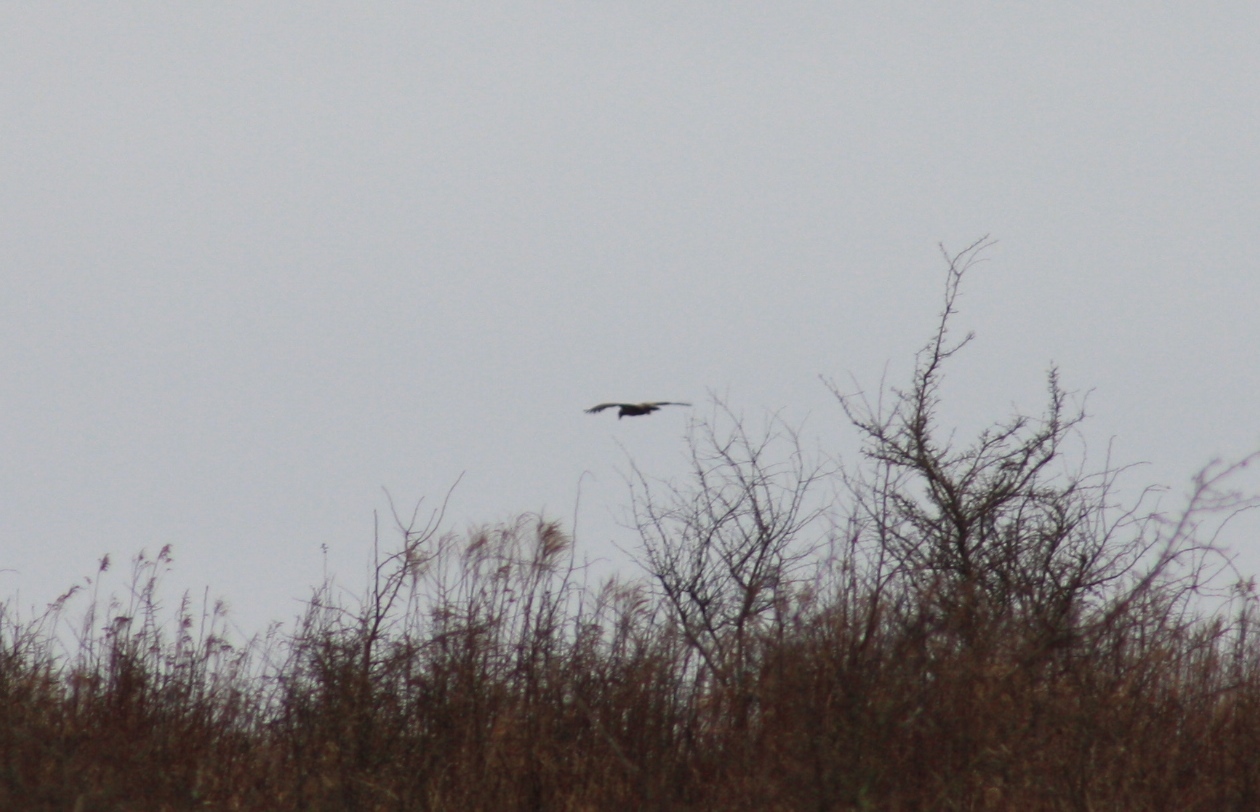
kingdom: Animalia
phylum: Chordata
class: Aves
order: Accipitriformes
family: Accipitridae
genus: Haliaeetus
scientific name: Haliaeetus albicilla
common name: White-tailed eagle
